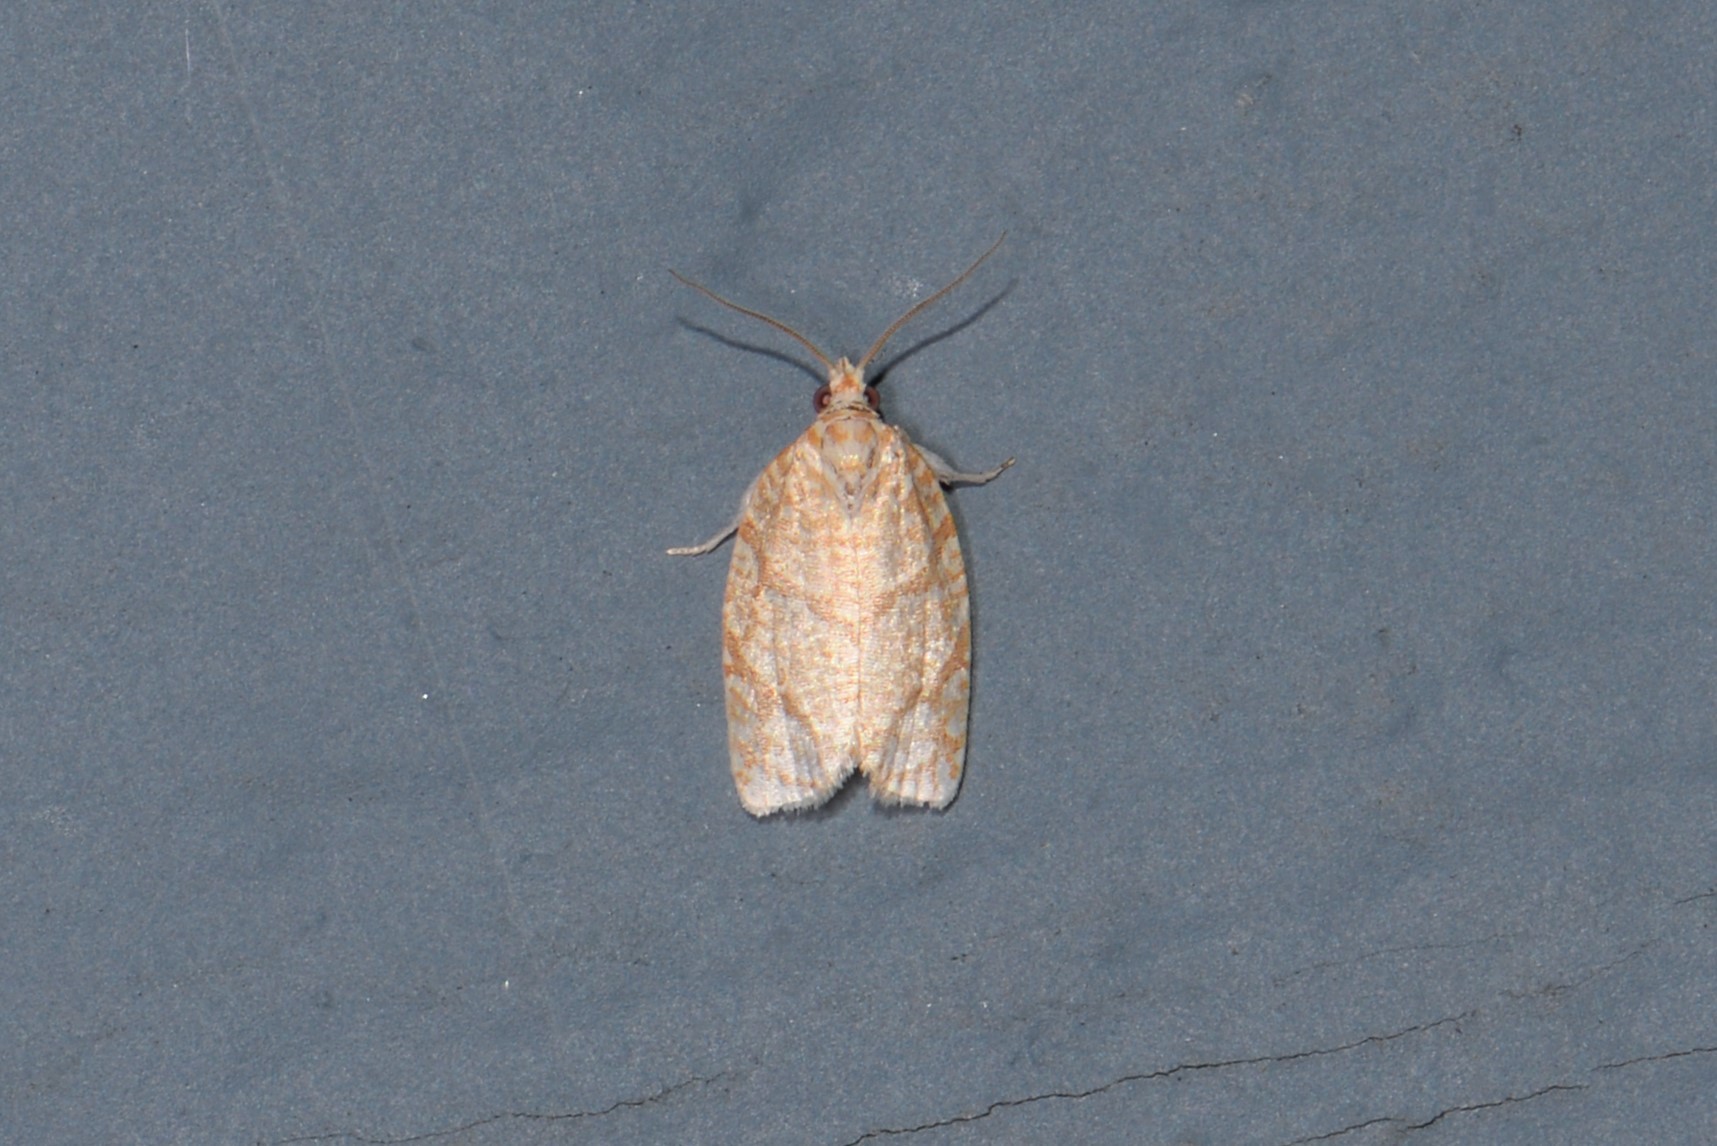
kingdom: Animalia
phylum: Arthropoda
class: Insecta
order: Lepidoptera
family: Tortricidae
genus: Argyrotaenia
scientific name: Argyrotaenia quercifoliana
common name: Yellow-winged oak leafroller moth
